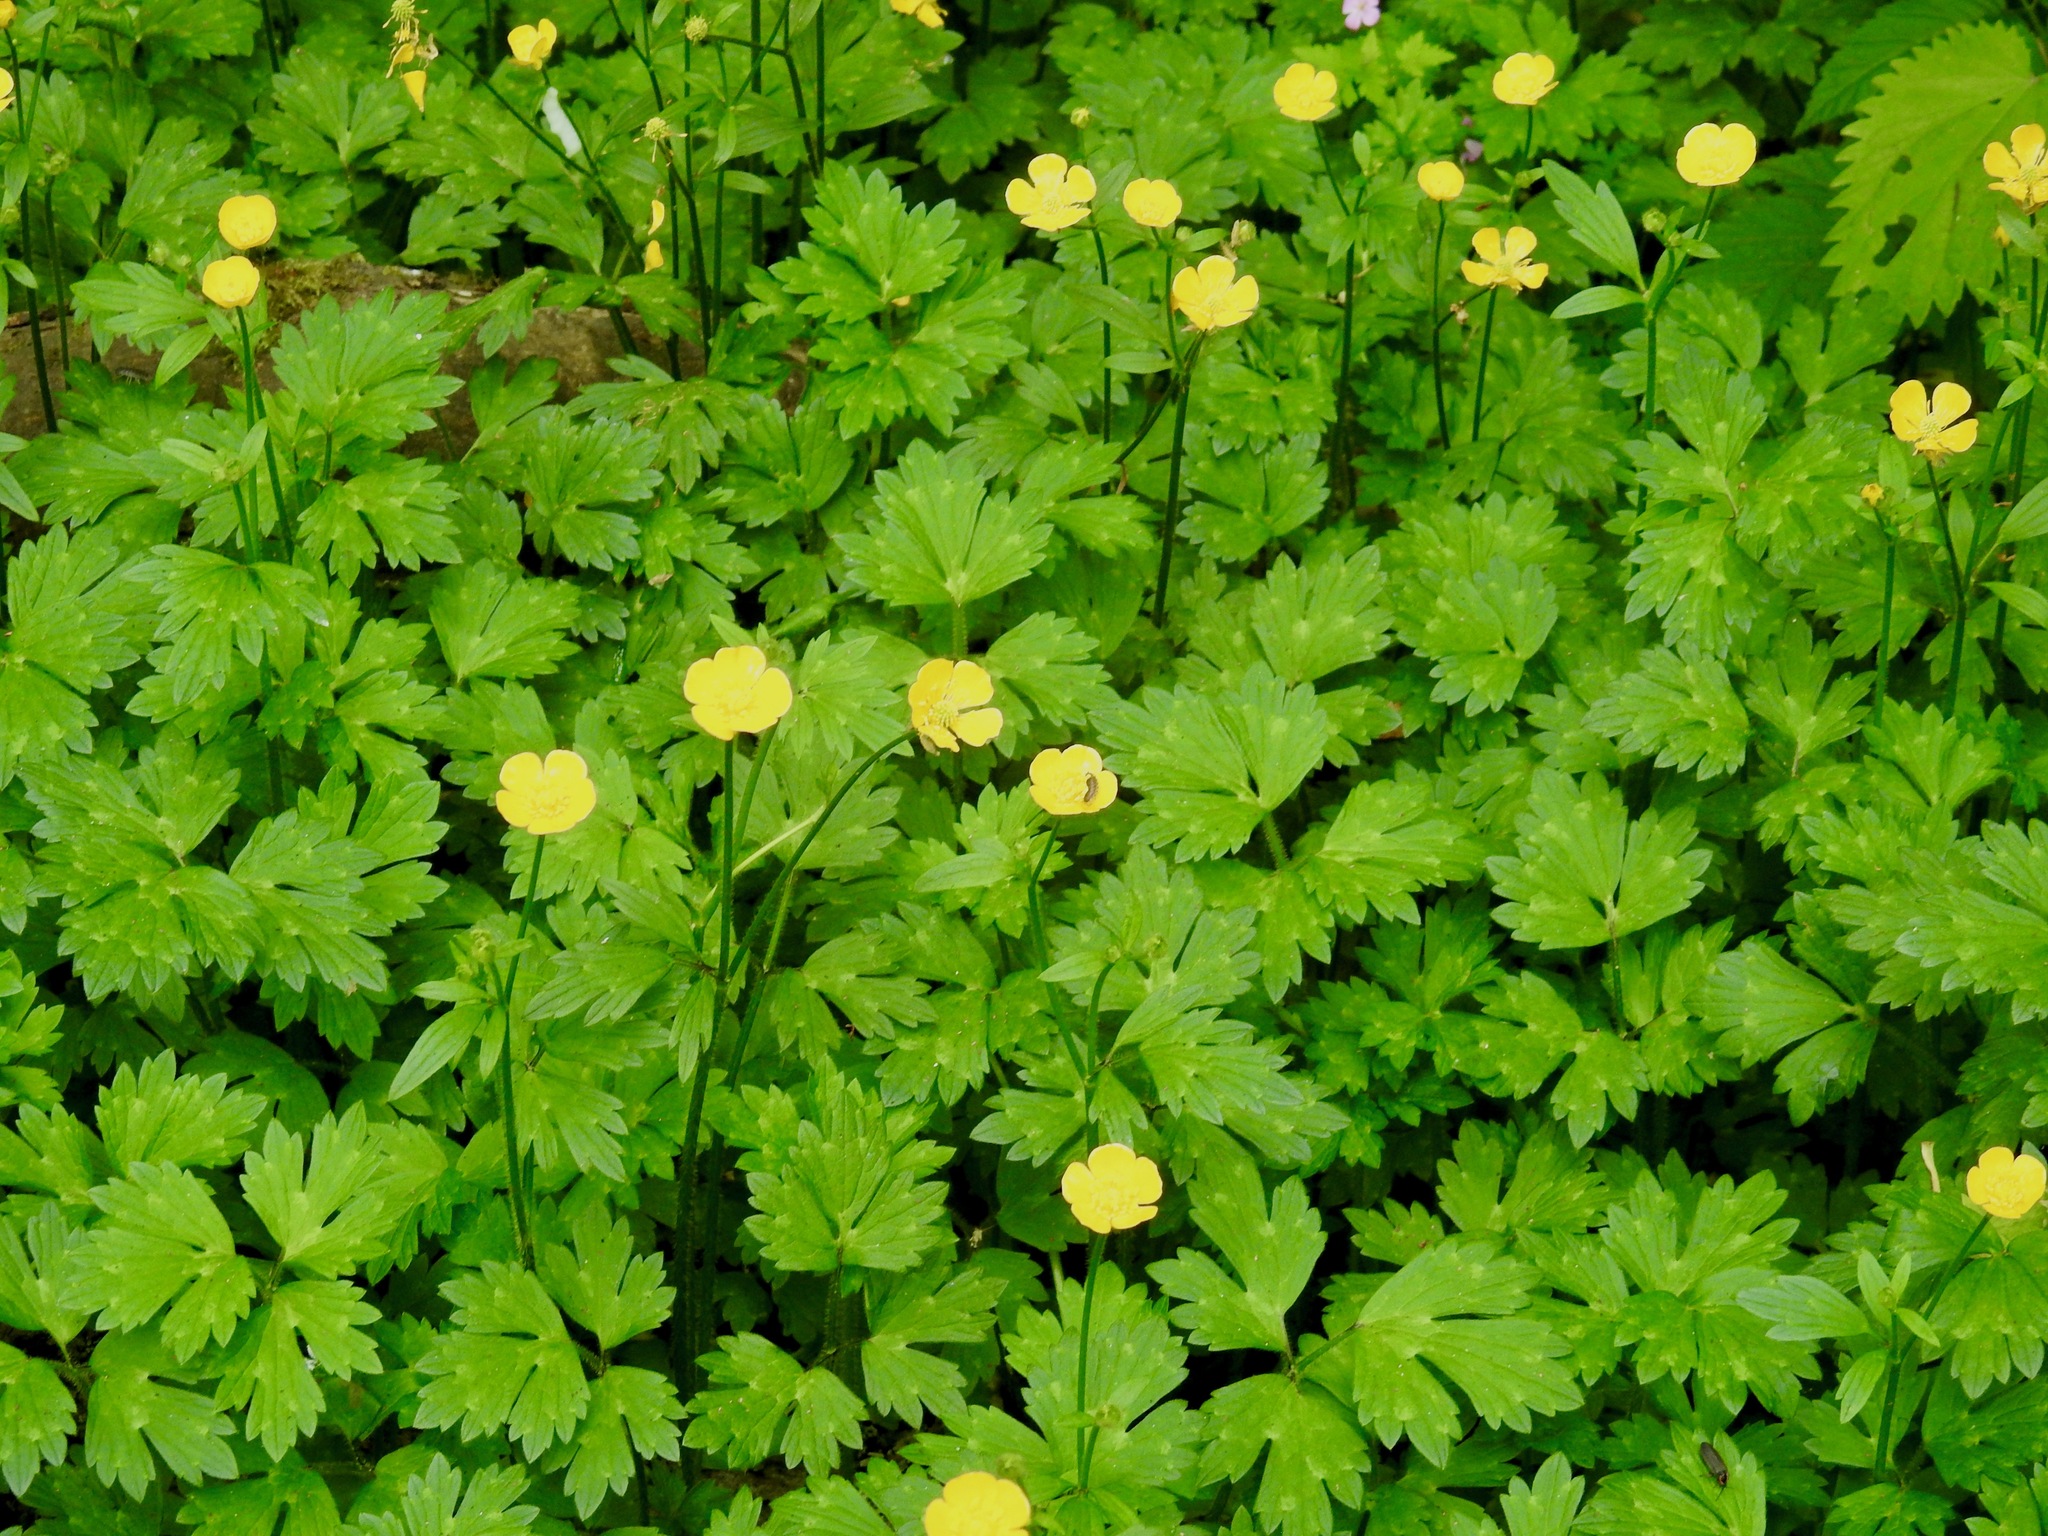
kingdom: Plantae
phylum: Tracheophyta
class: Magnoliopsida
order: Ranunculales
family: Ranunculaceae
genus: Ranunculus
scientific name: Ranunculus repens
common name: Creeping buttercup
